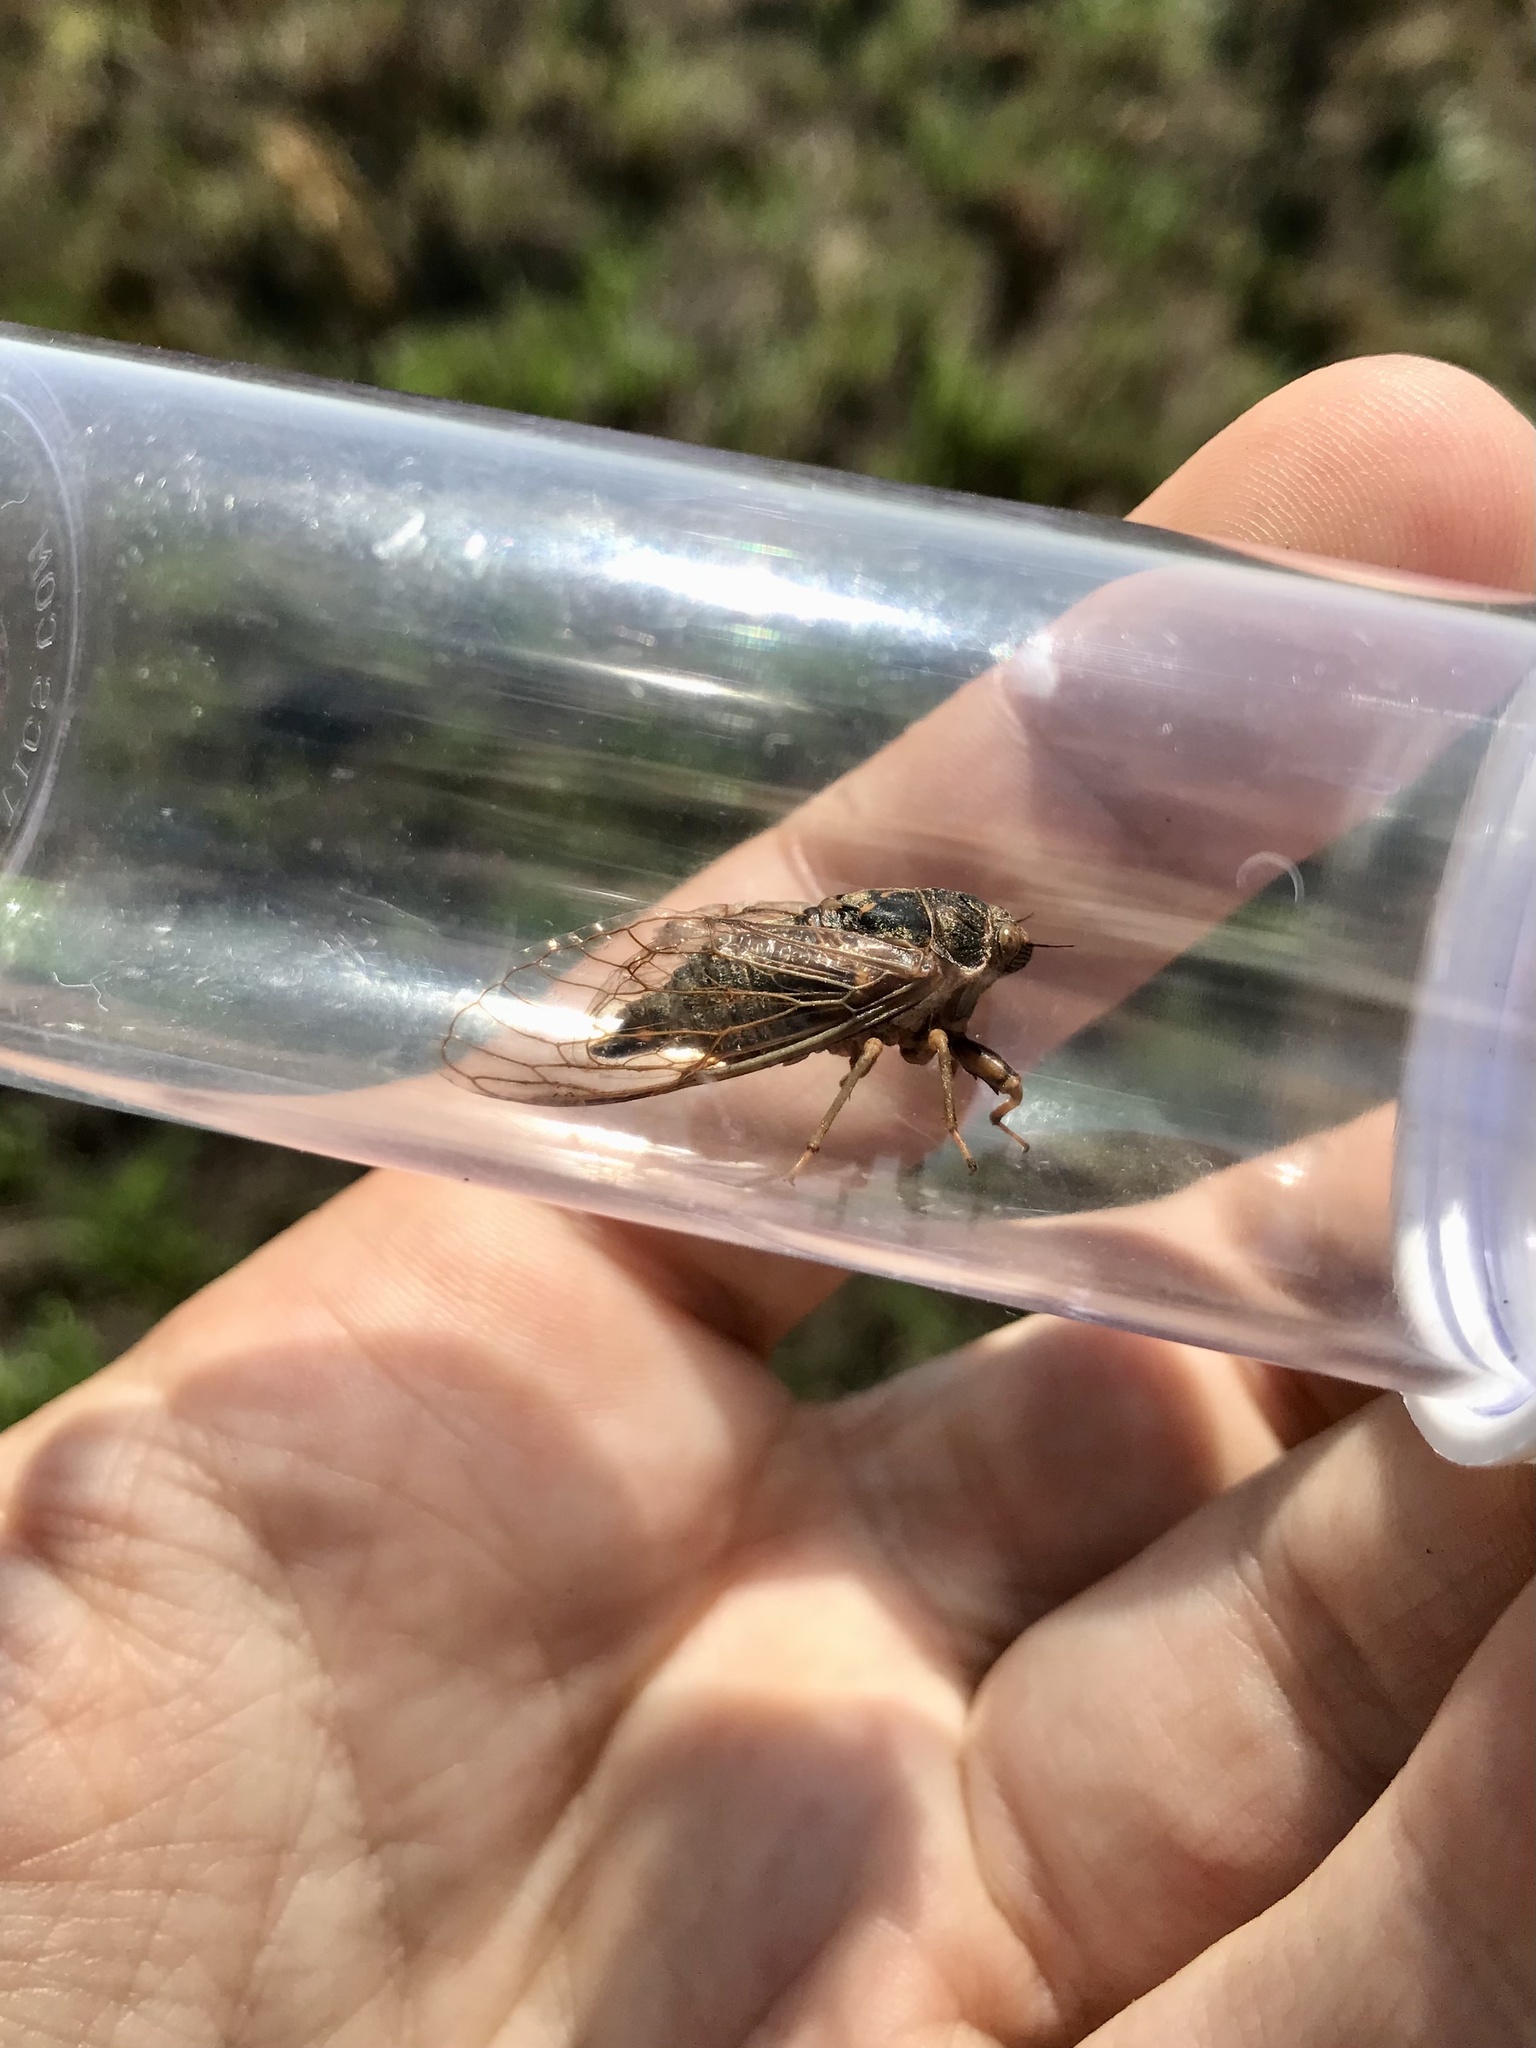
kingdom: Animalia
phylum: Arthropoda
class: Insecta
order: Hemiptera
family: Cicadidae
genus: Okanagana
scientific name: Okanagana balli
